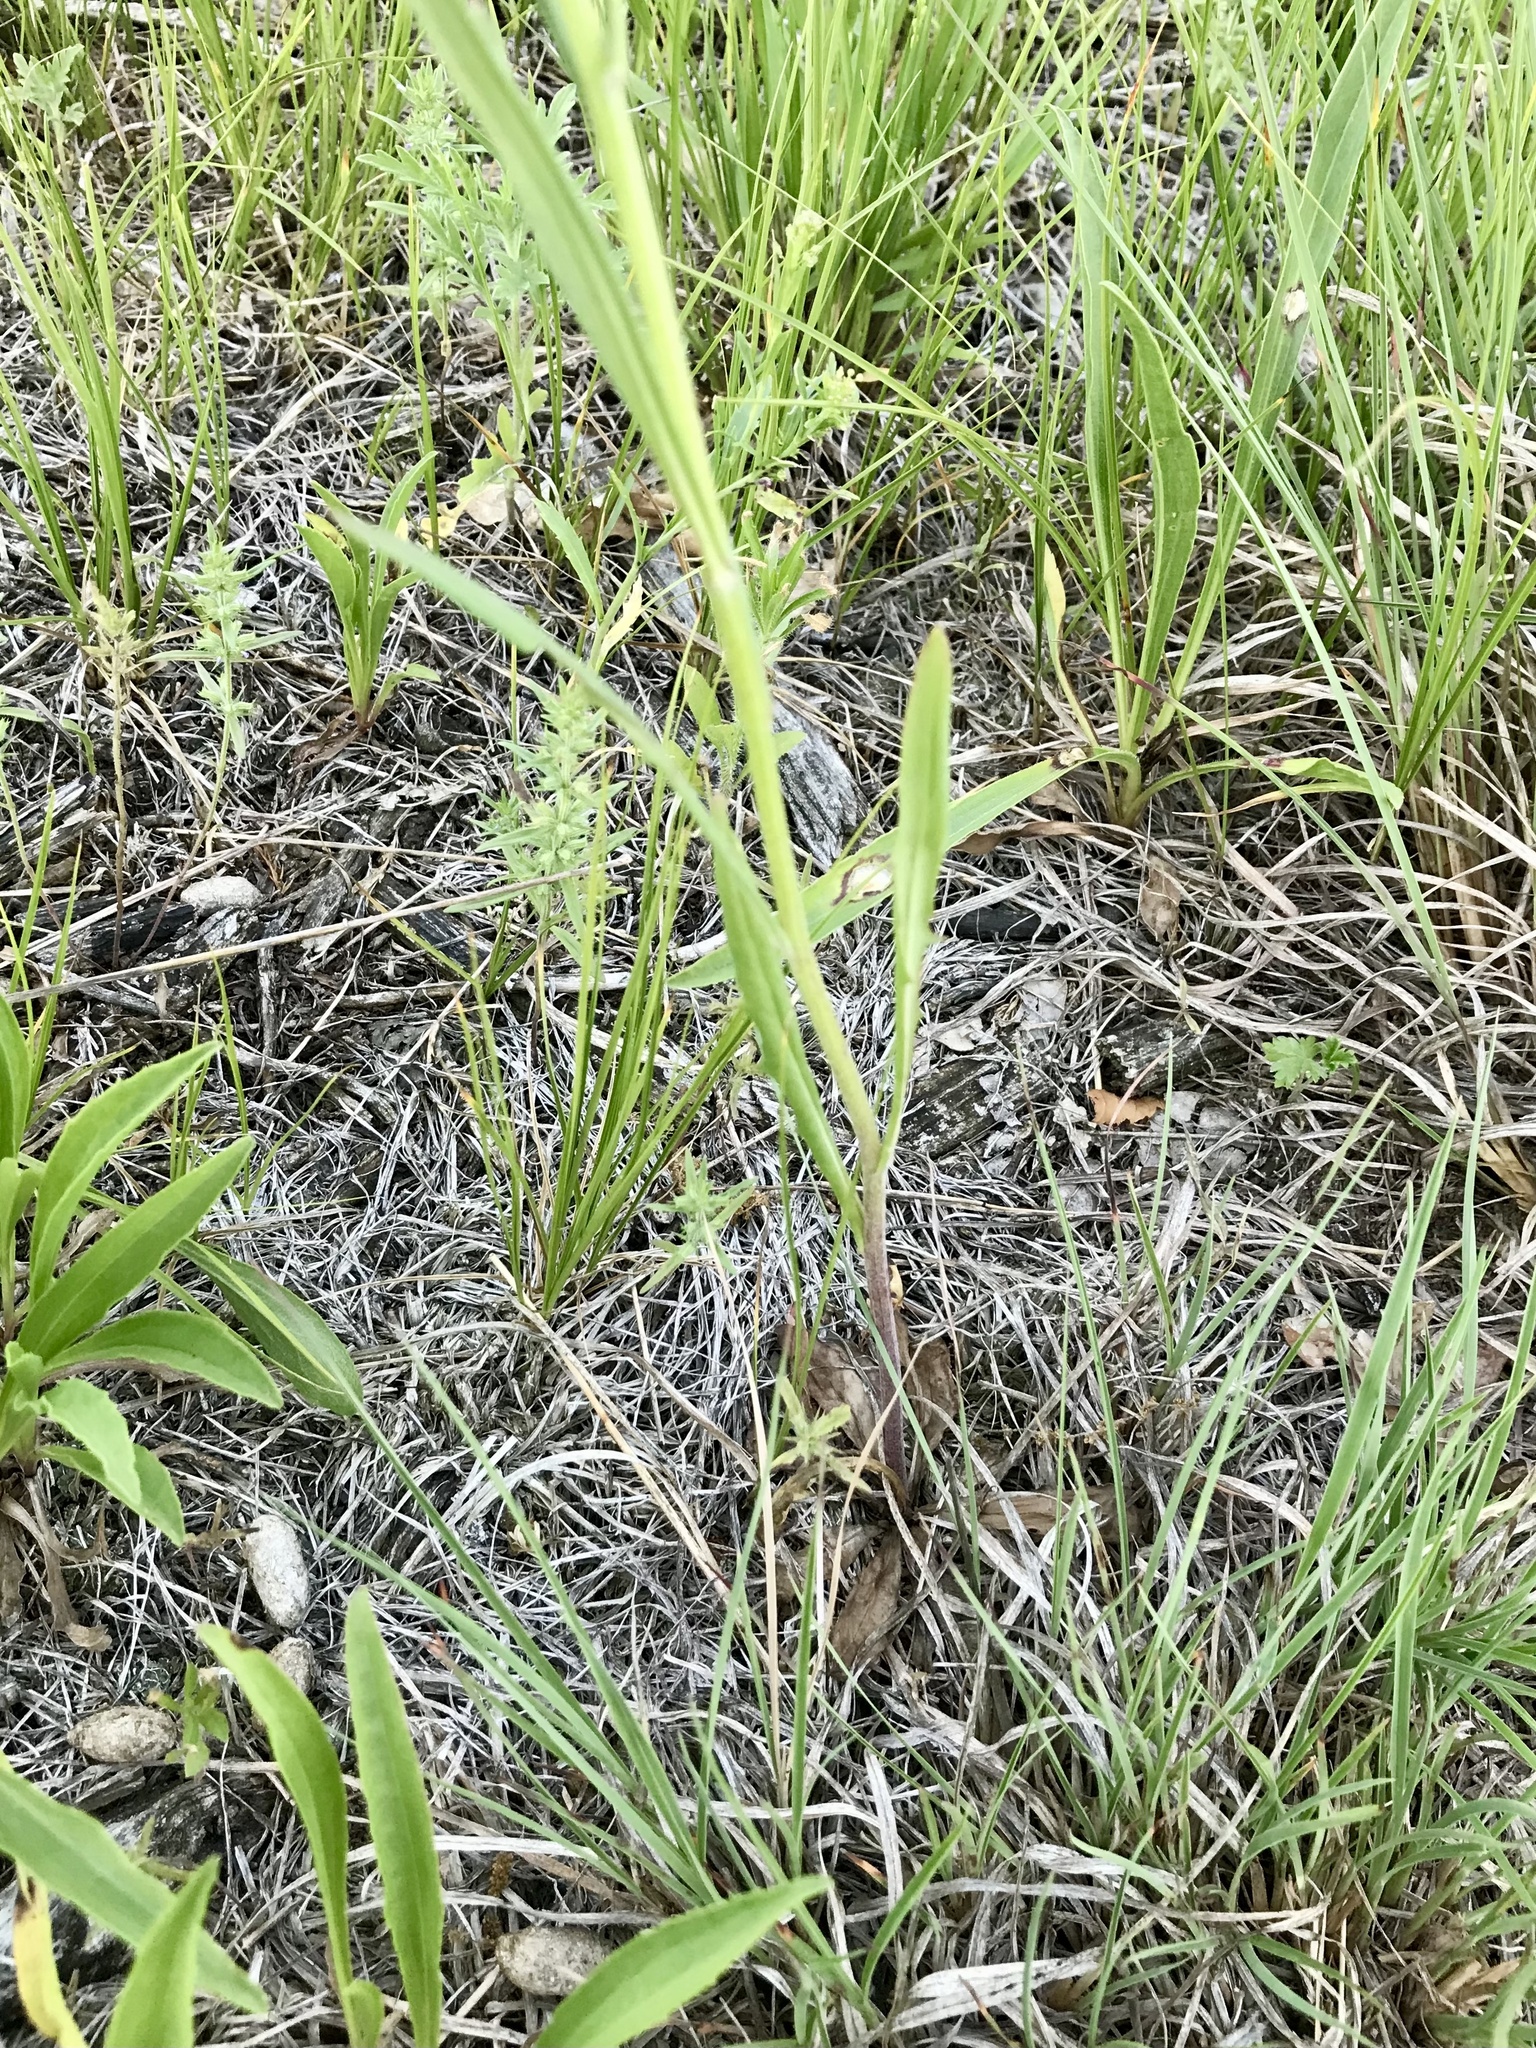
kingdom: Plantae
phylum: Tracheophyta
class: Magnoliopsida
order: Asterales
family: Asteraceae
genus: Crepis
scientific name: Crepis tectorum
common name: Narrow-leaved hawk's-beard
